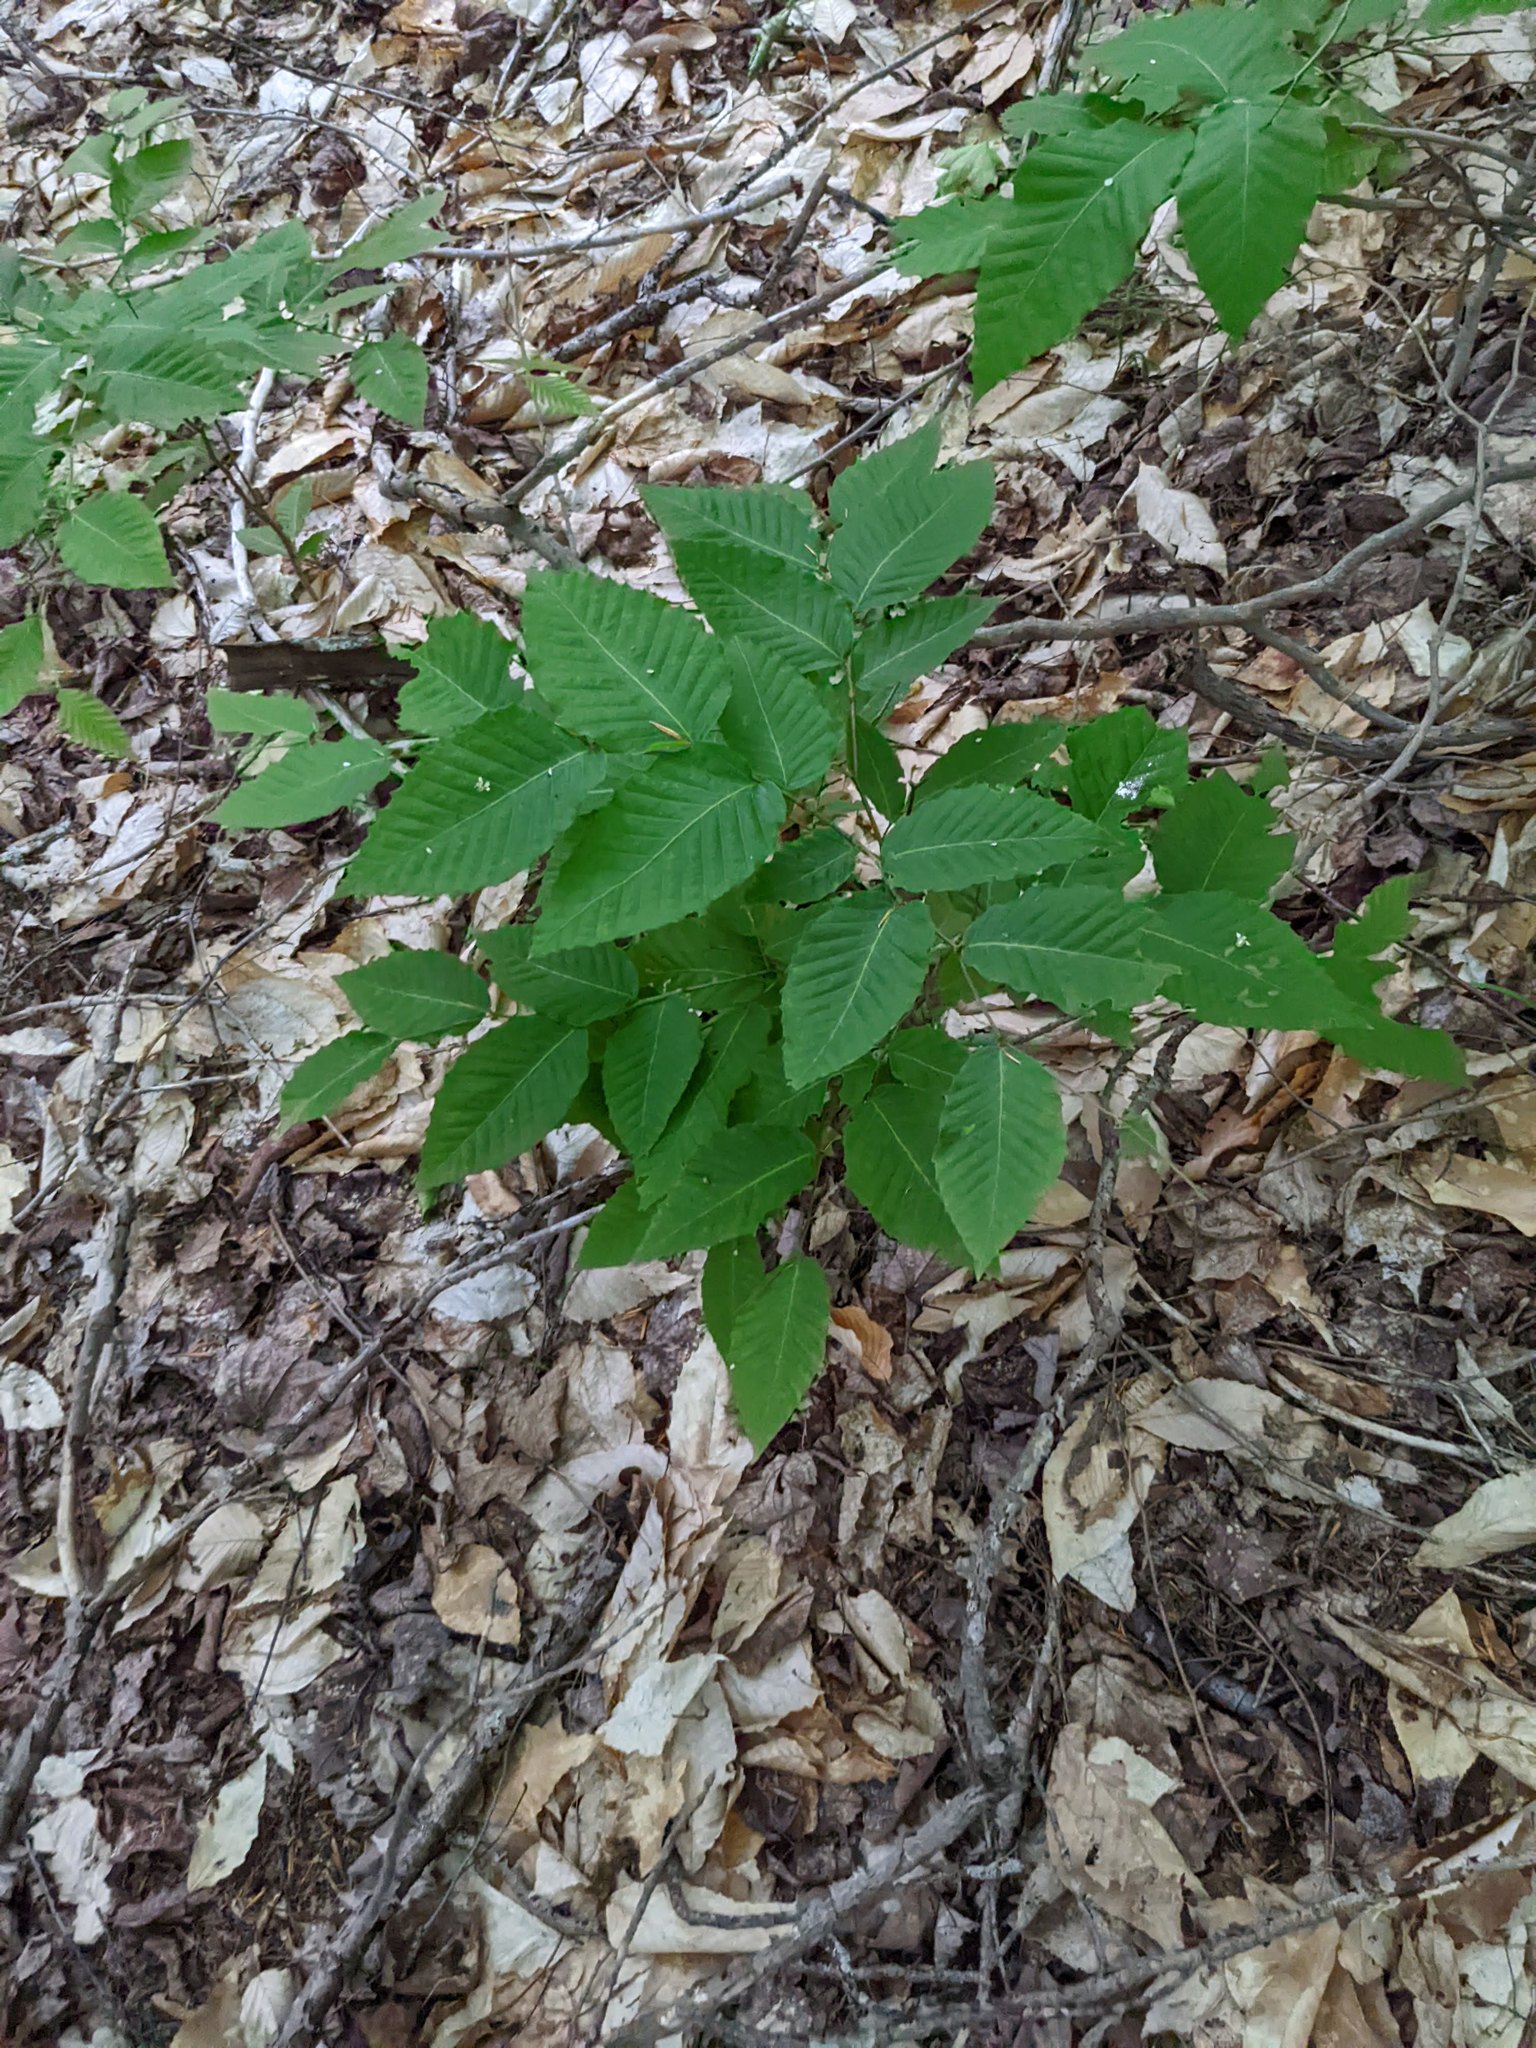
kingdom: Plantae
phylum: Tracheophyta
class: Magnoliopsida
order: Fagales
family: Fagaceae
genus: Fagus
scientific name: Fagus grandifolia
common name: American beech
